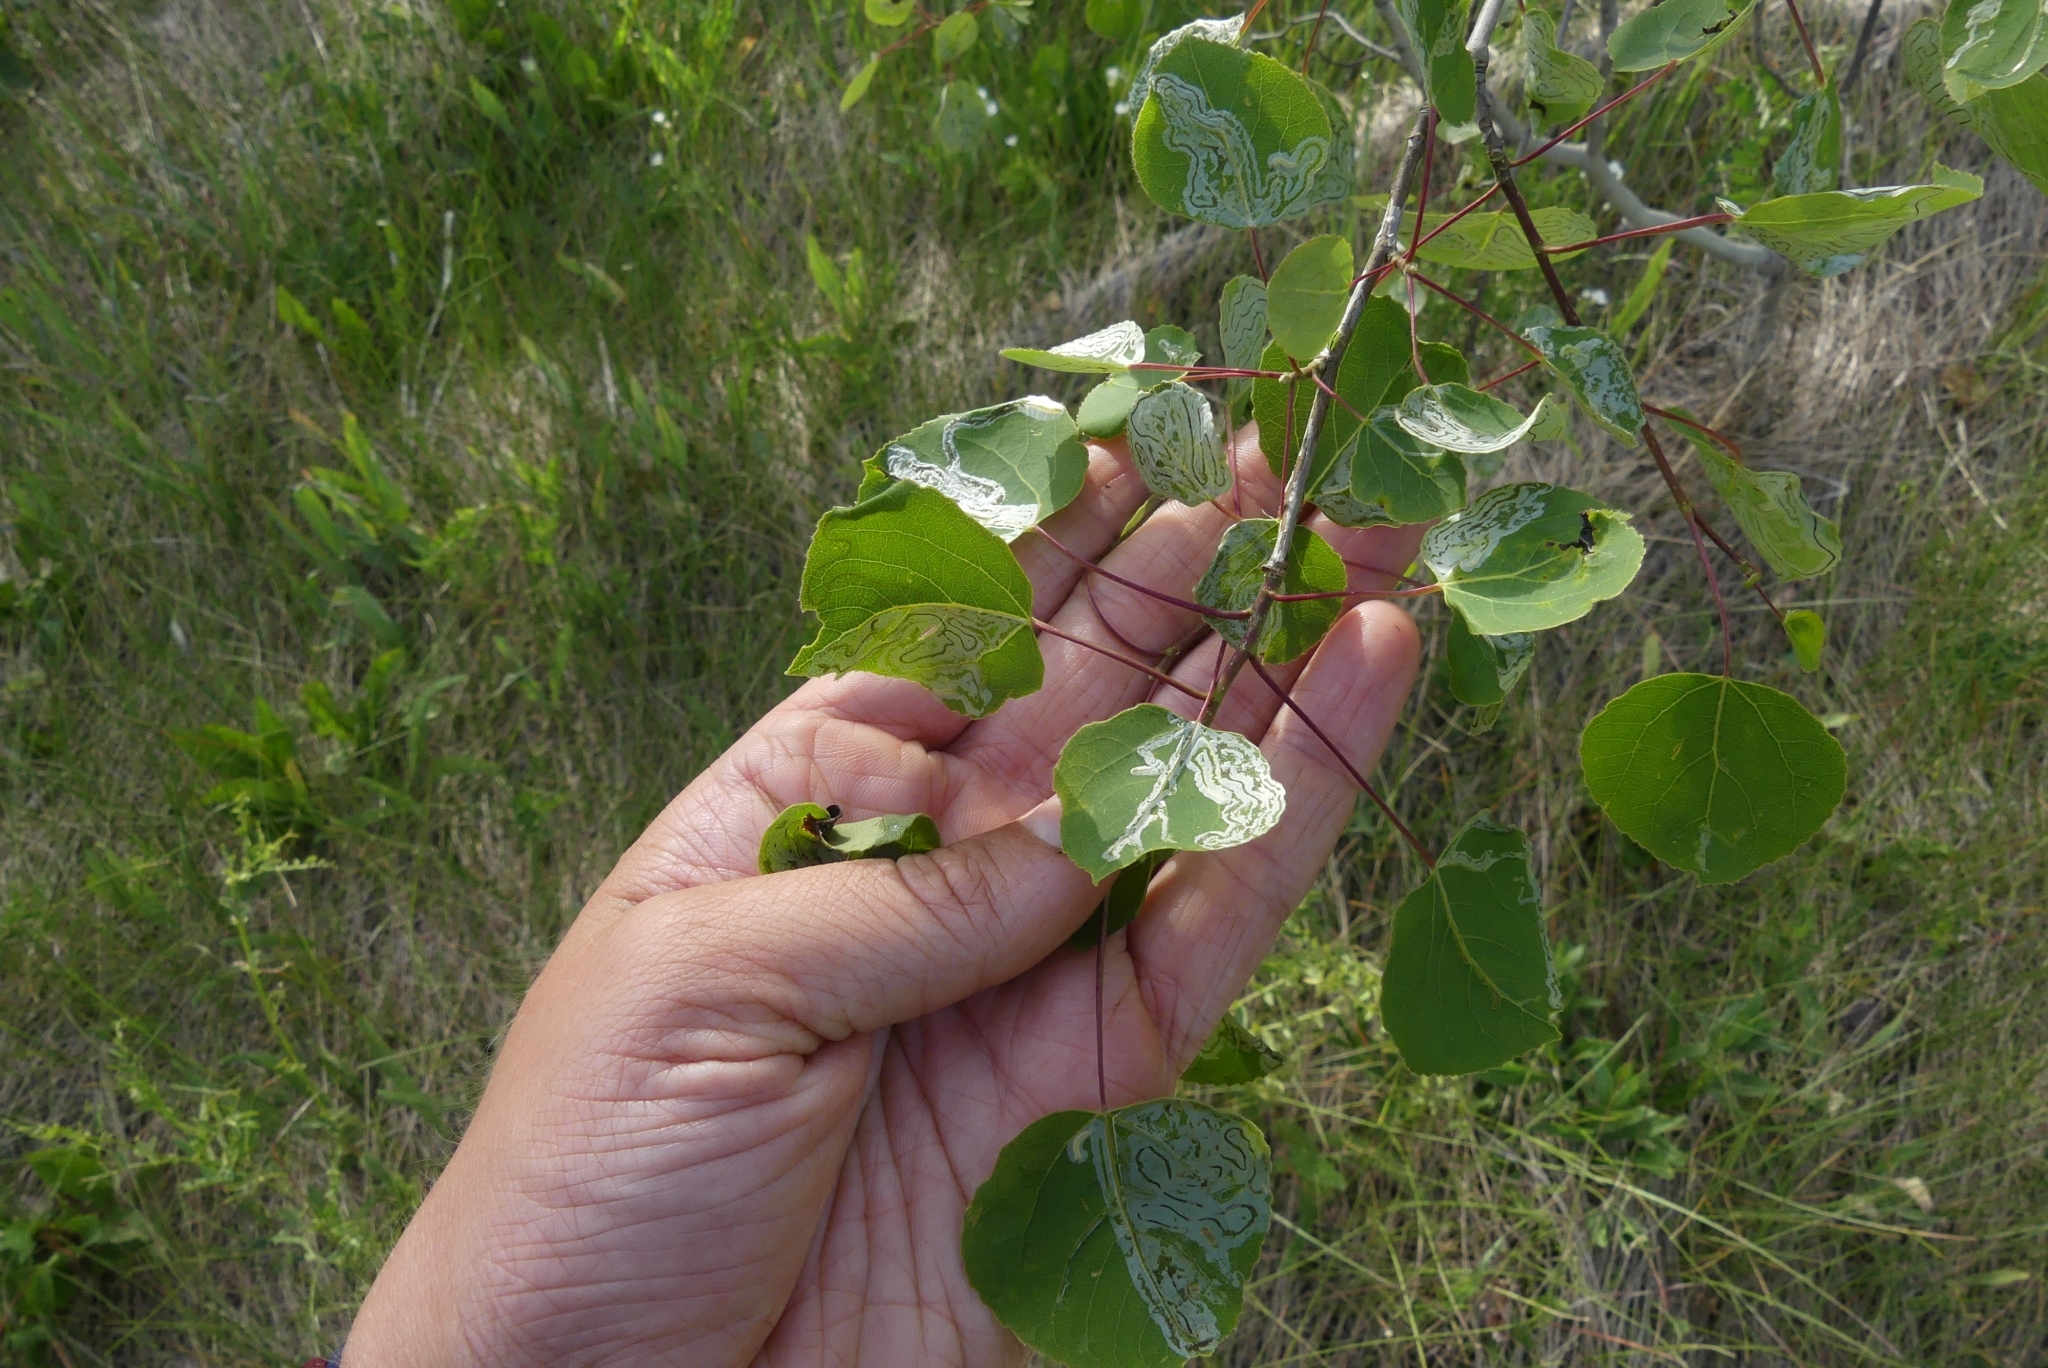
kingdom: Plantae
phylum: Tracheophyta
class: Magnoliopsida
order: Malpighiales
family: Salicaceae
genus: Populus
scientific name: Populus tremuloides
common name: Quaking aspen
